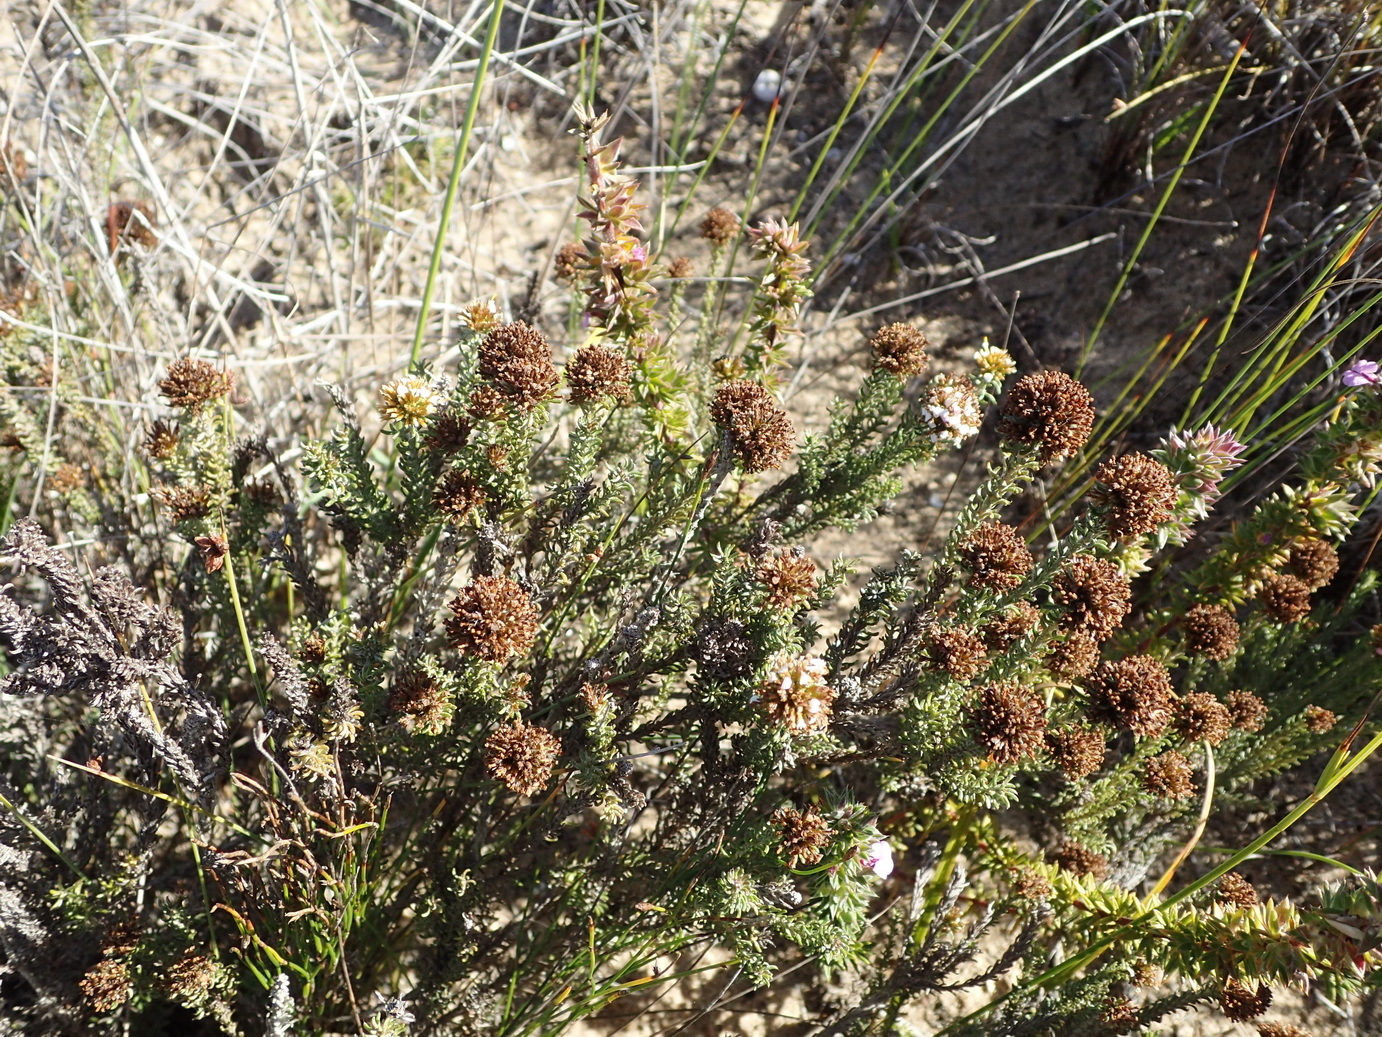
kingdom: Plantae
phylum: Tracheophyta
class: Magnoliopsida
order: Asterales
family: Asteraceae
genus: Disparago
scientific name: Disparago anomala
